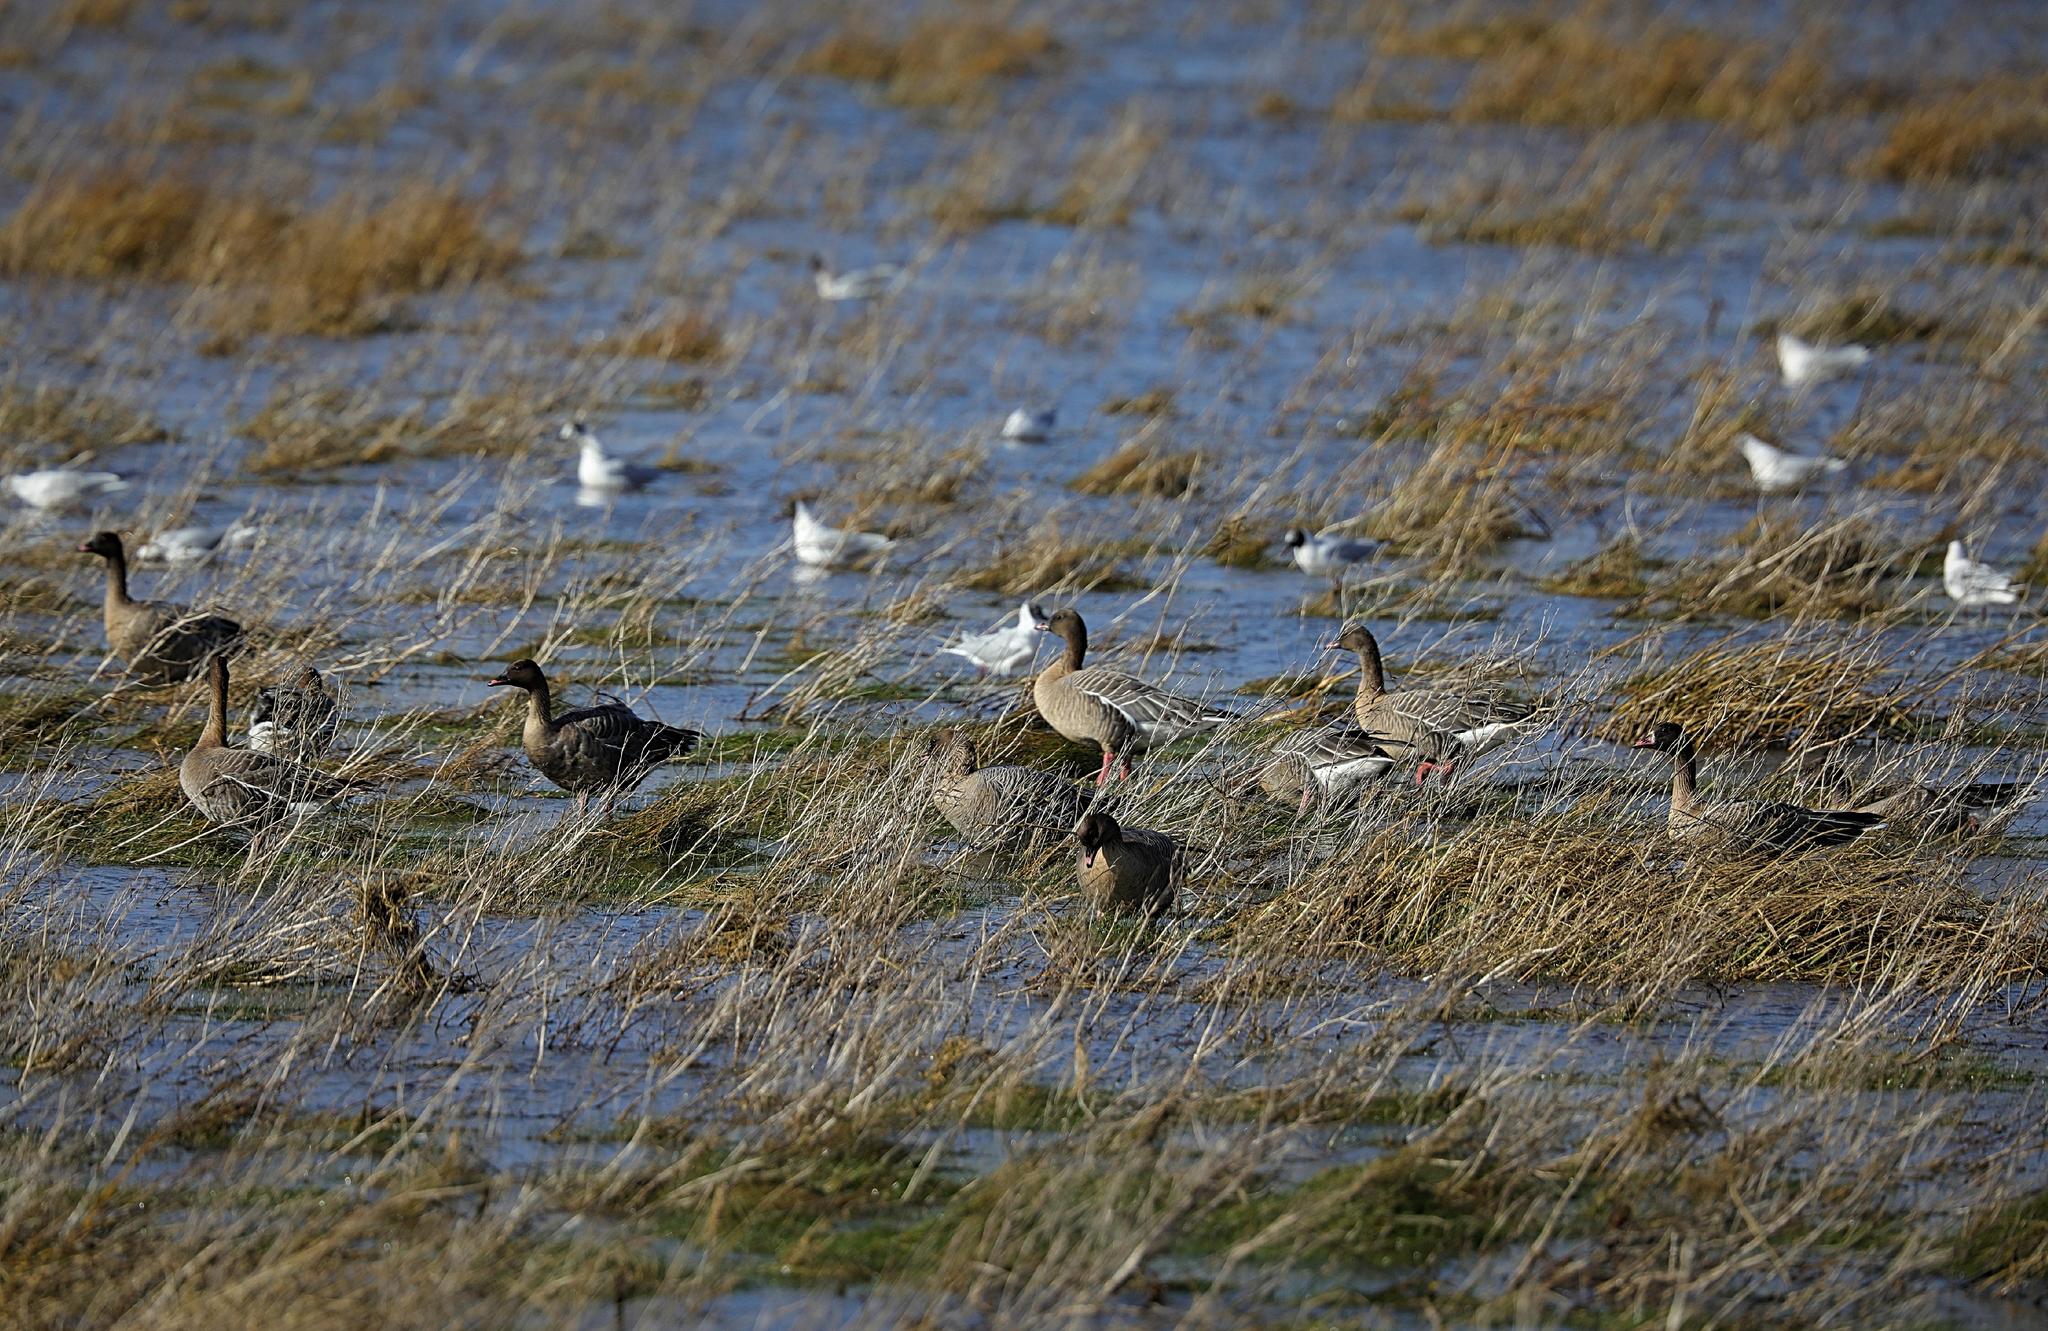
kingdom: Animalia
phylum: Chordata
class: Aves
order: Anseriformes
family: Anatidae
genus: Anser
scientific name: Anser brachyrhynchus
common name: Pink-footed goose
